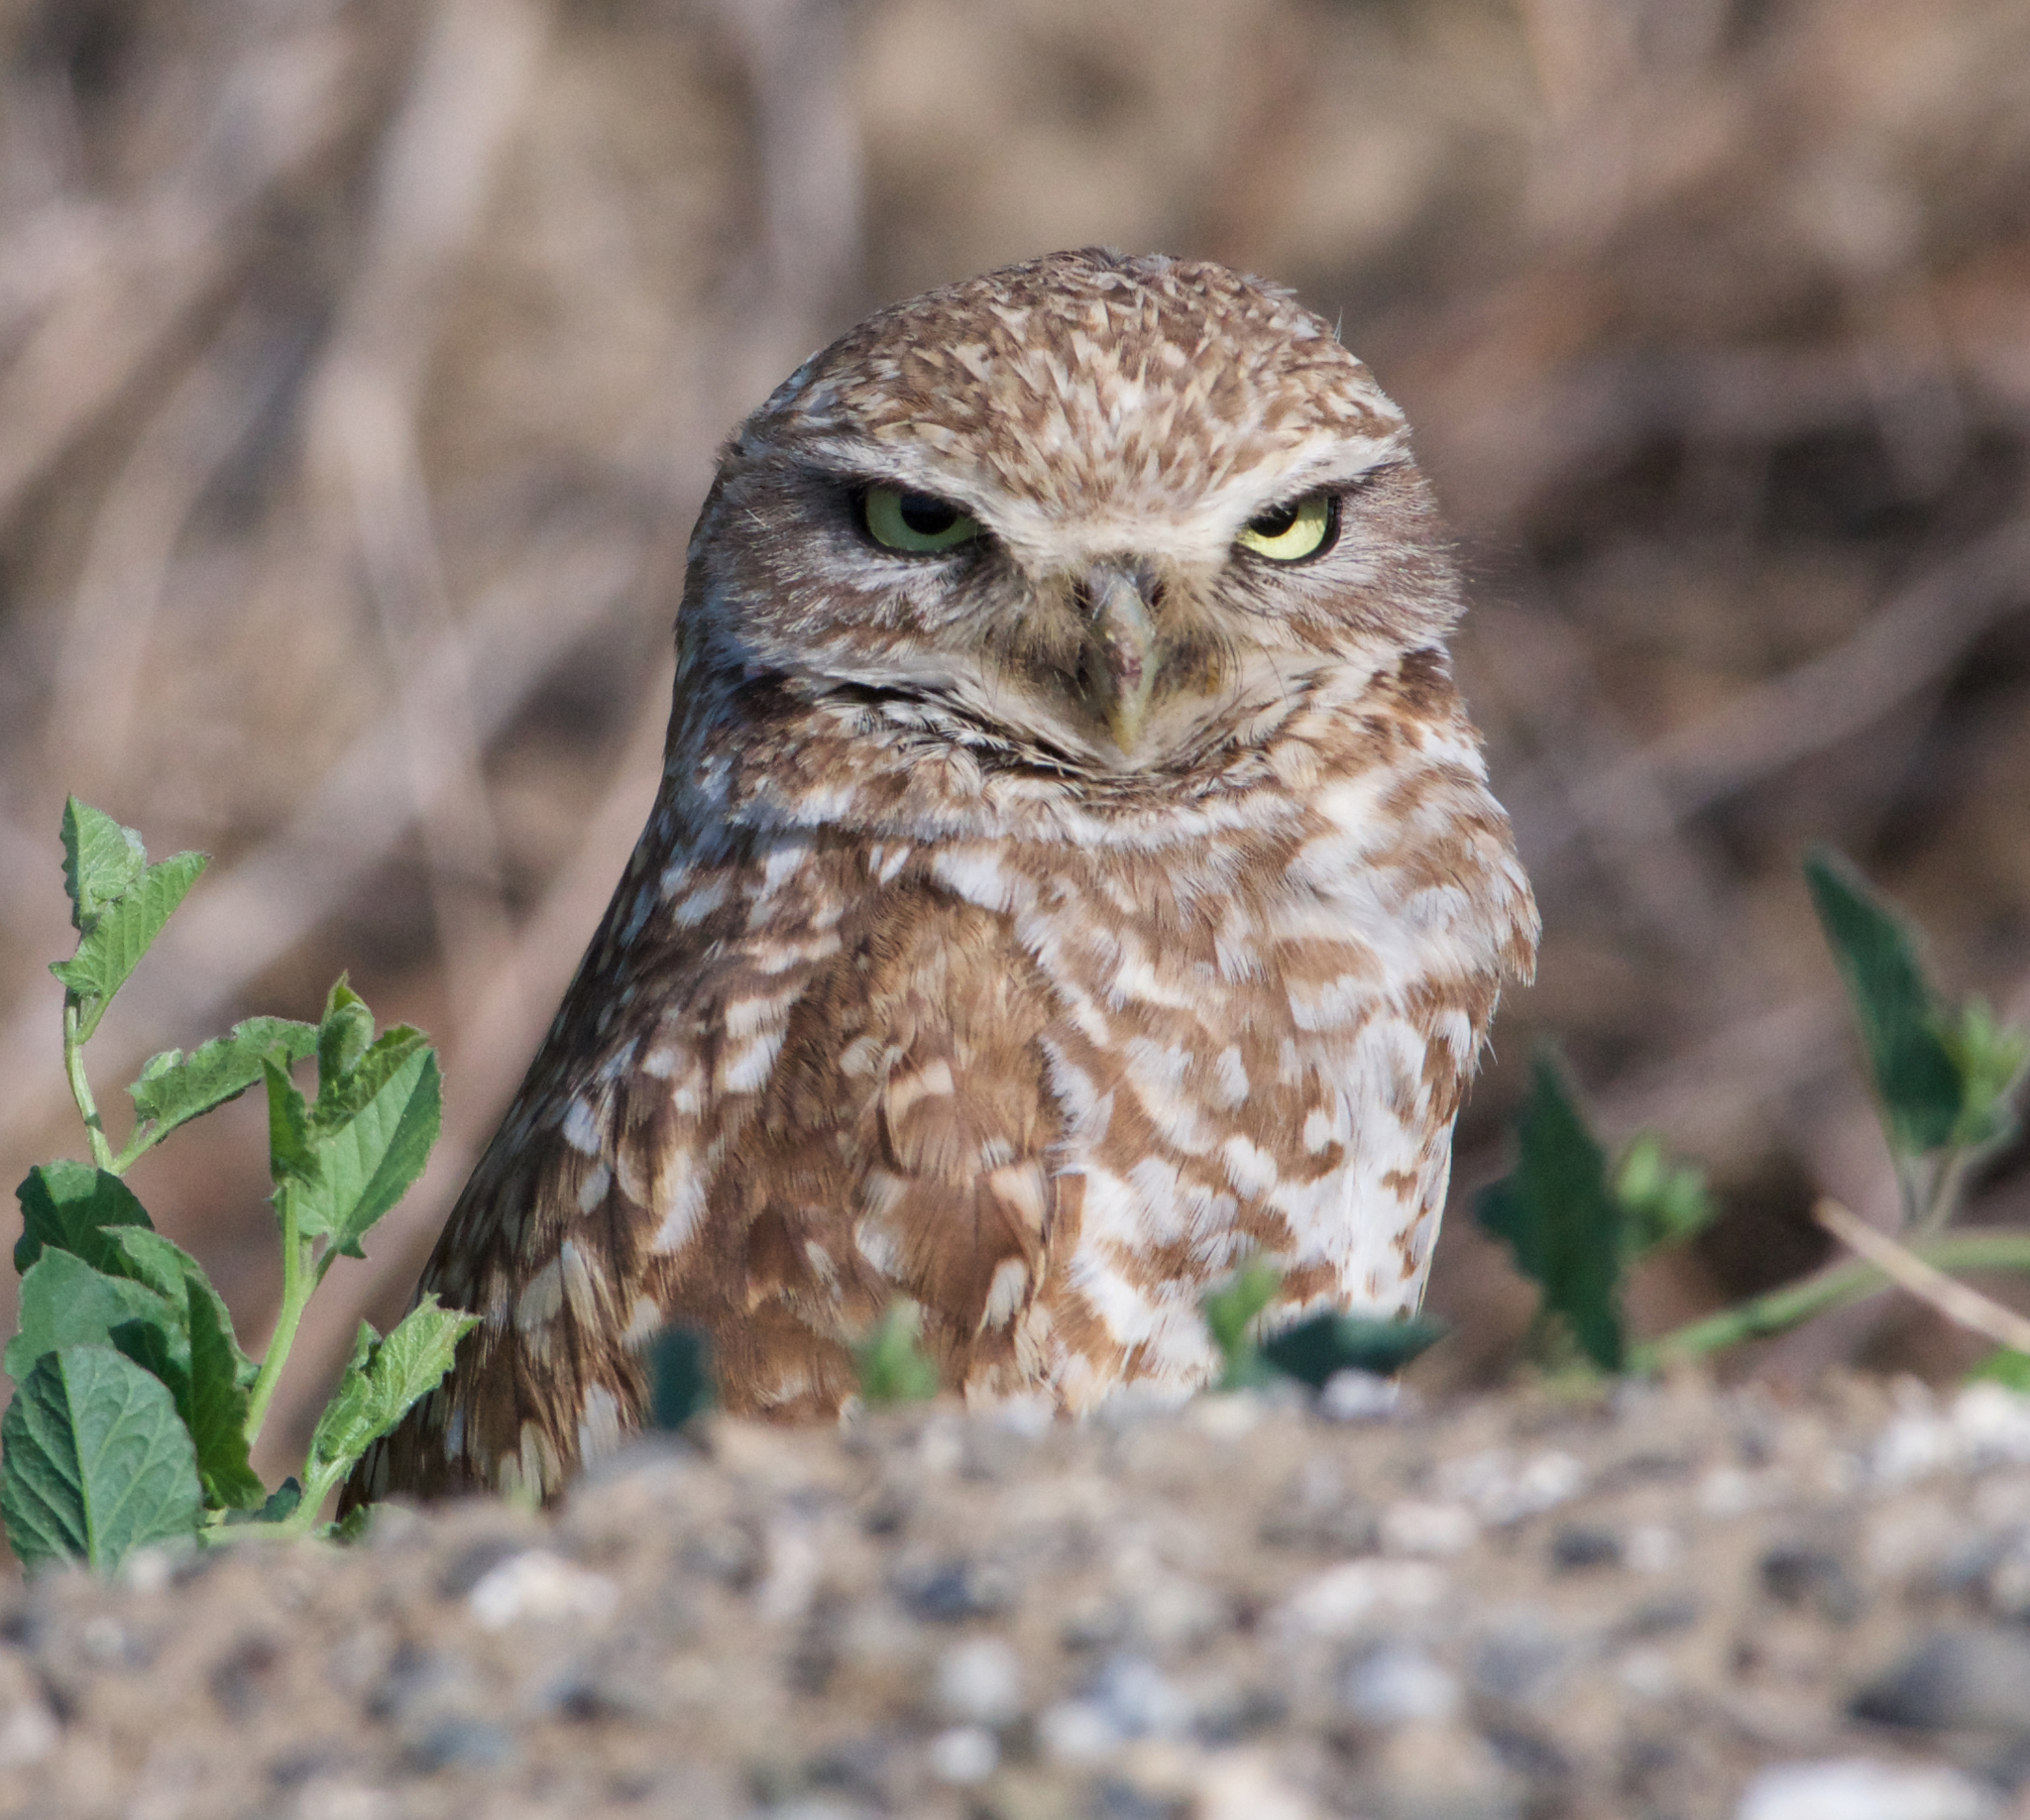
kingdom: Animalia
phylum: Chordata
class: Aves
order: Strigiformes
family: Strigidae
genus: Athene
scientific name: Athene cunicularia
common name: Burrowing owl
